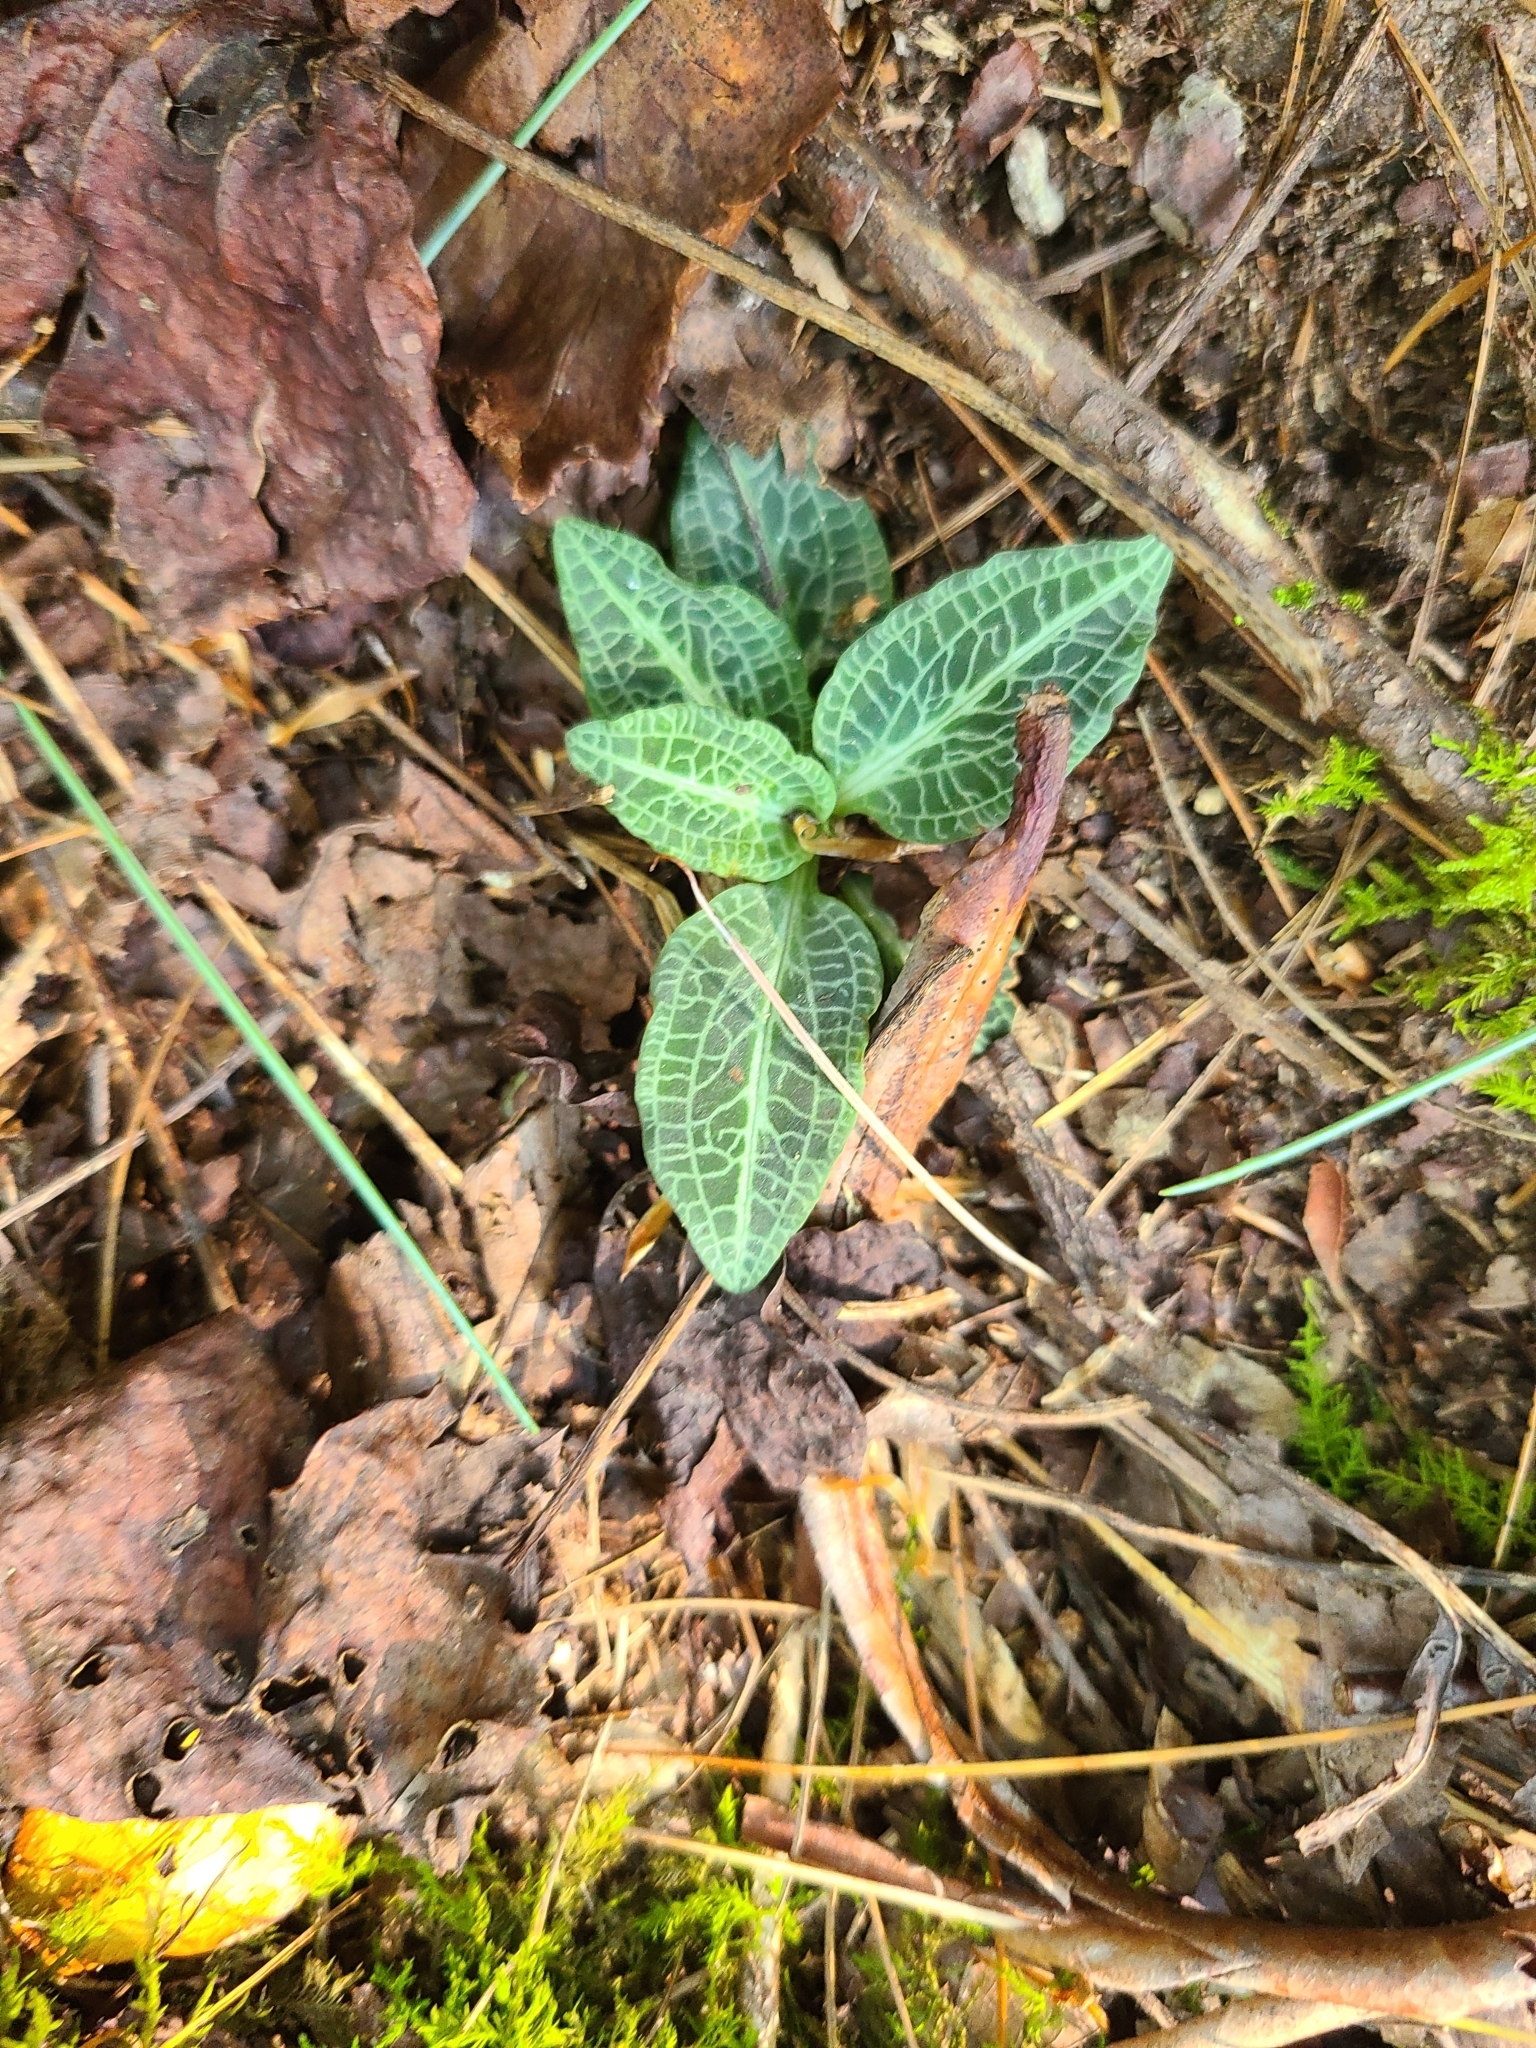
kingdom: Plantae
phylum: Tracheophyta
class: Liliopsida
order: Asparagales
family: Orchidaceae
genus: Goodyera
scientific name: Goodyera pubescens
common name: Downy rattlesnake-plantain
